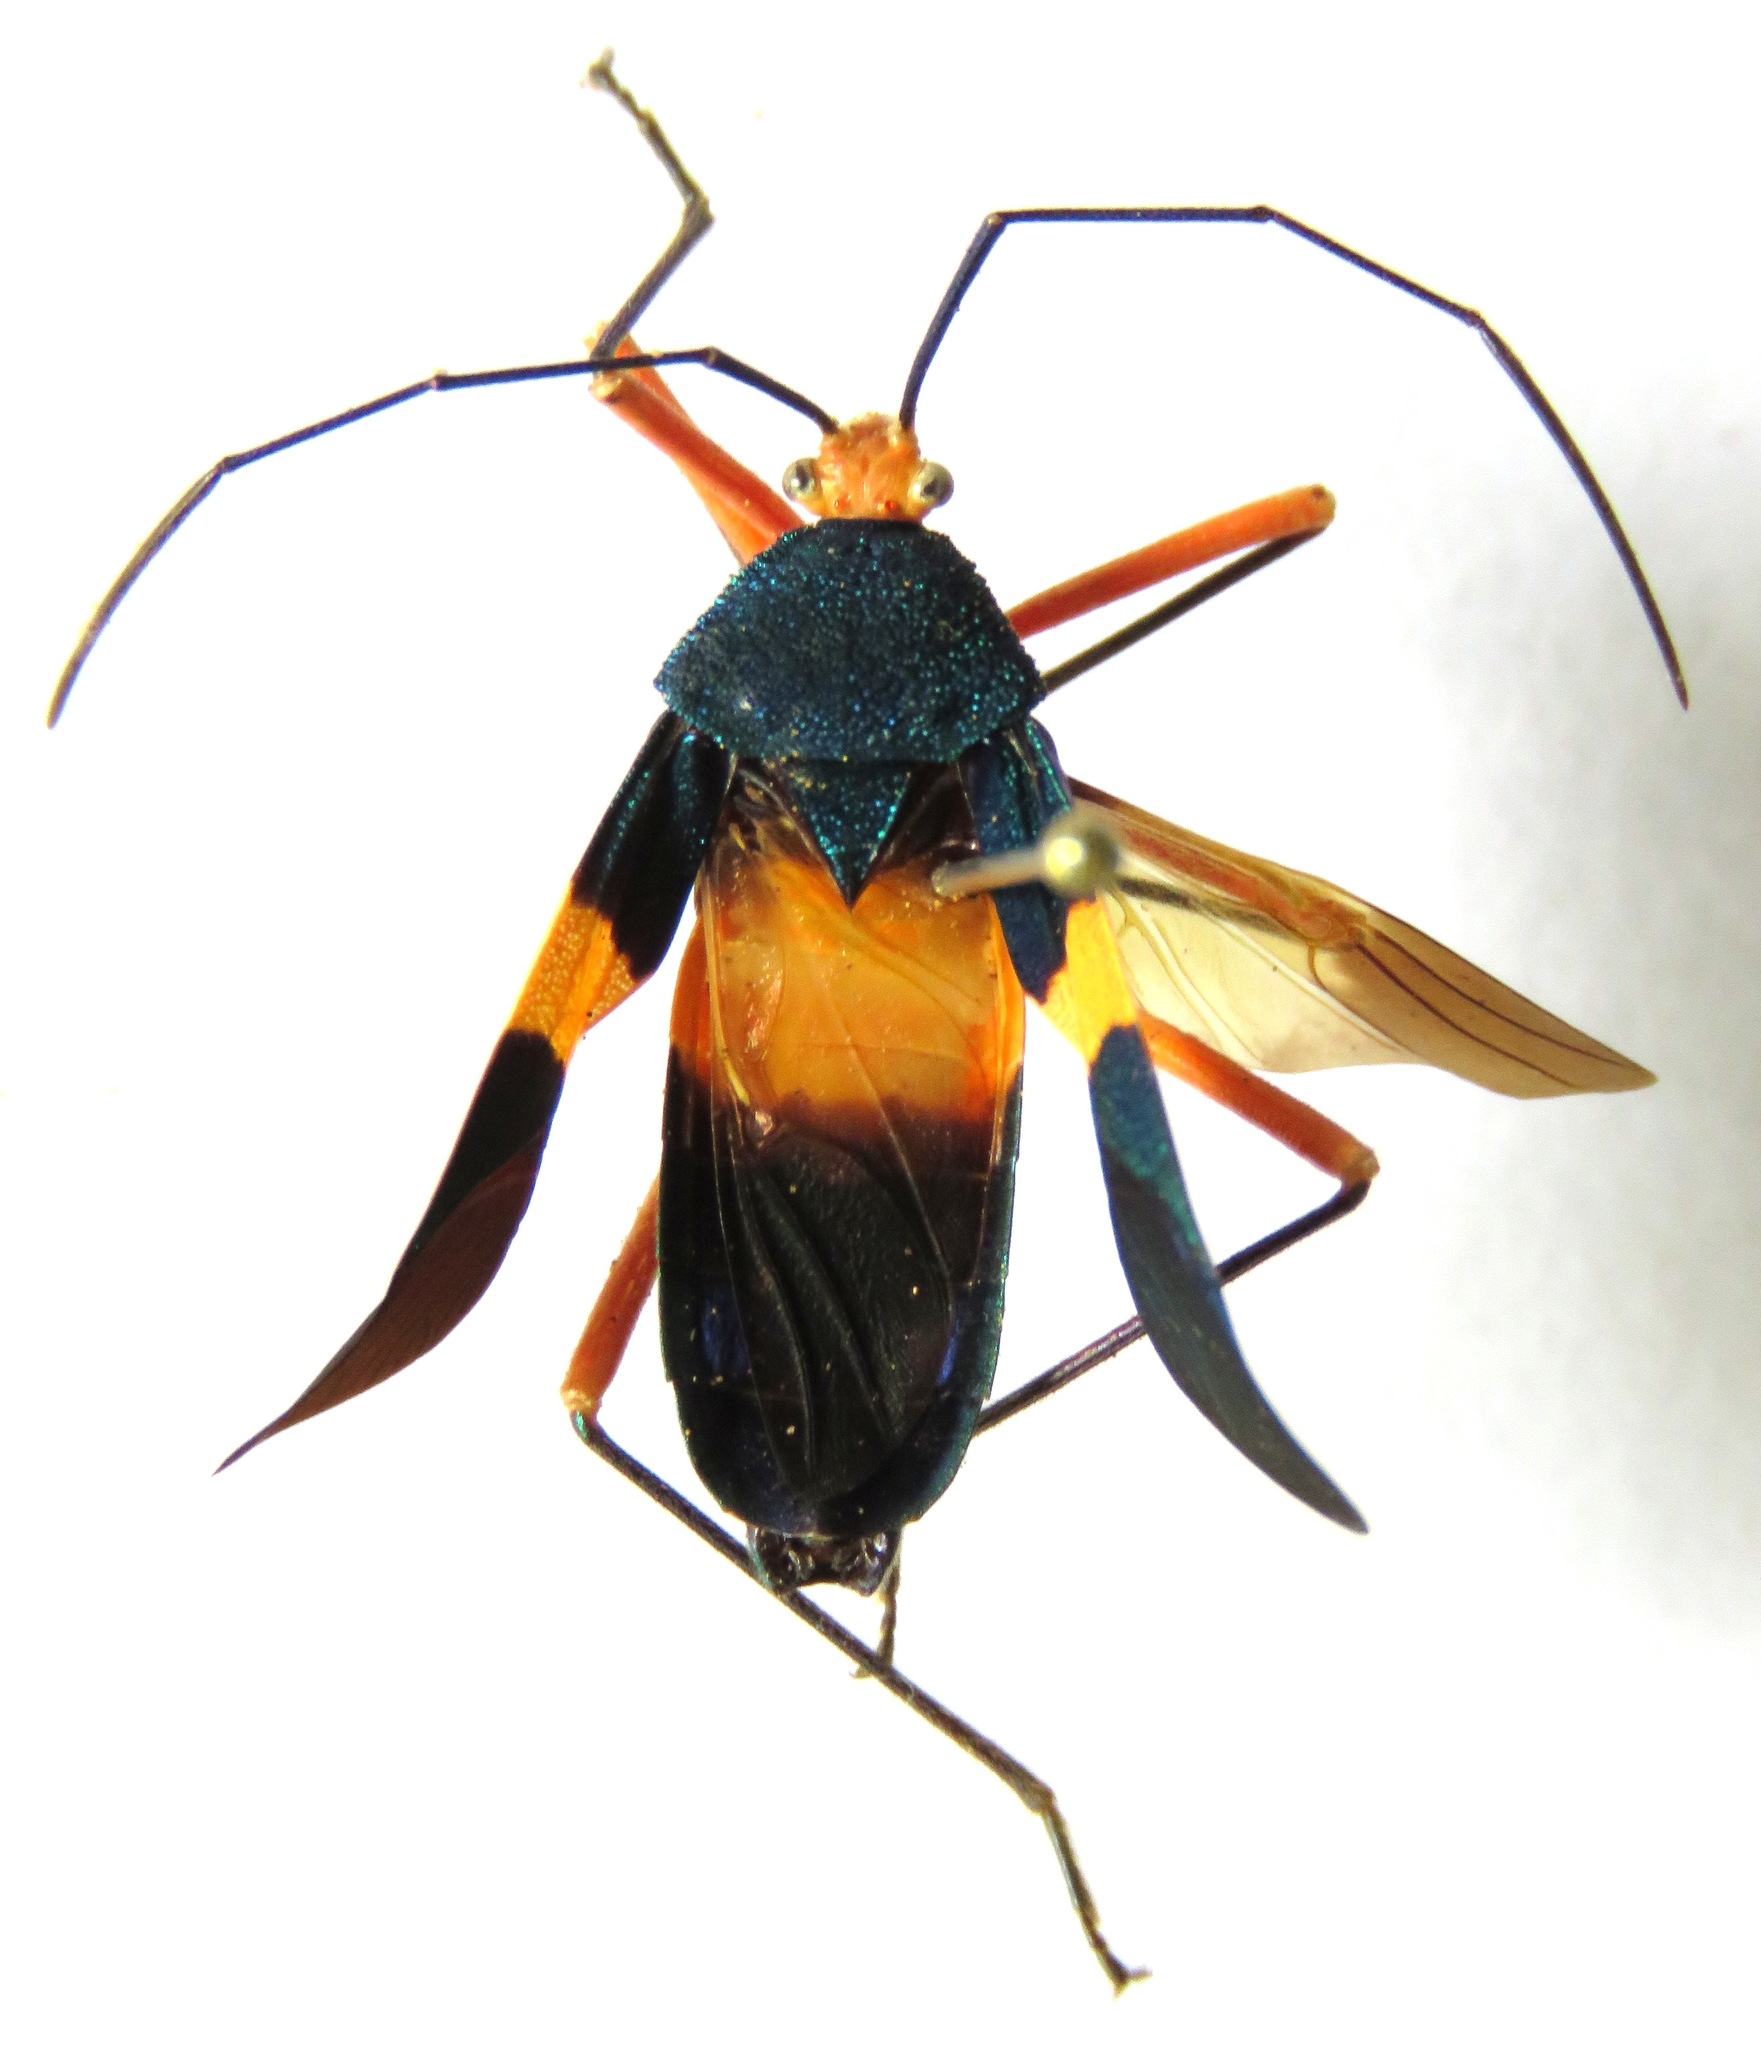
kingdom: Animalia
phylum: Arthropoda
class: Insecta
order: Hemiptera
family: Coreidae
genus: Paryphes
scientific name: Paryphes blandus
